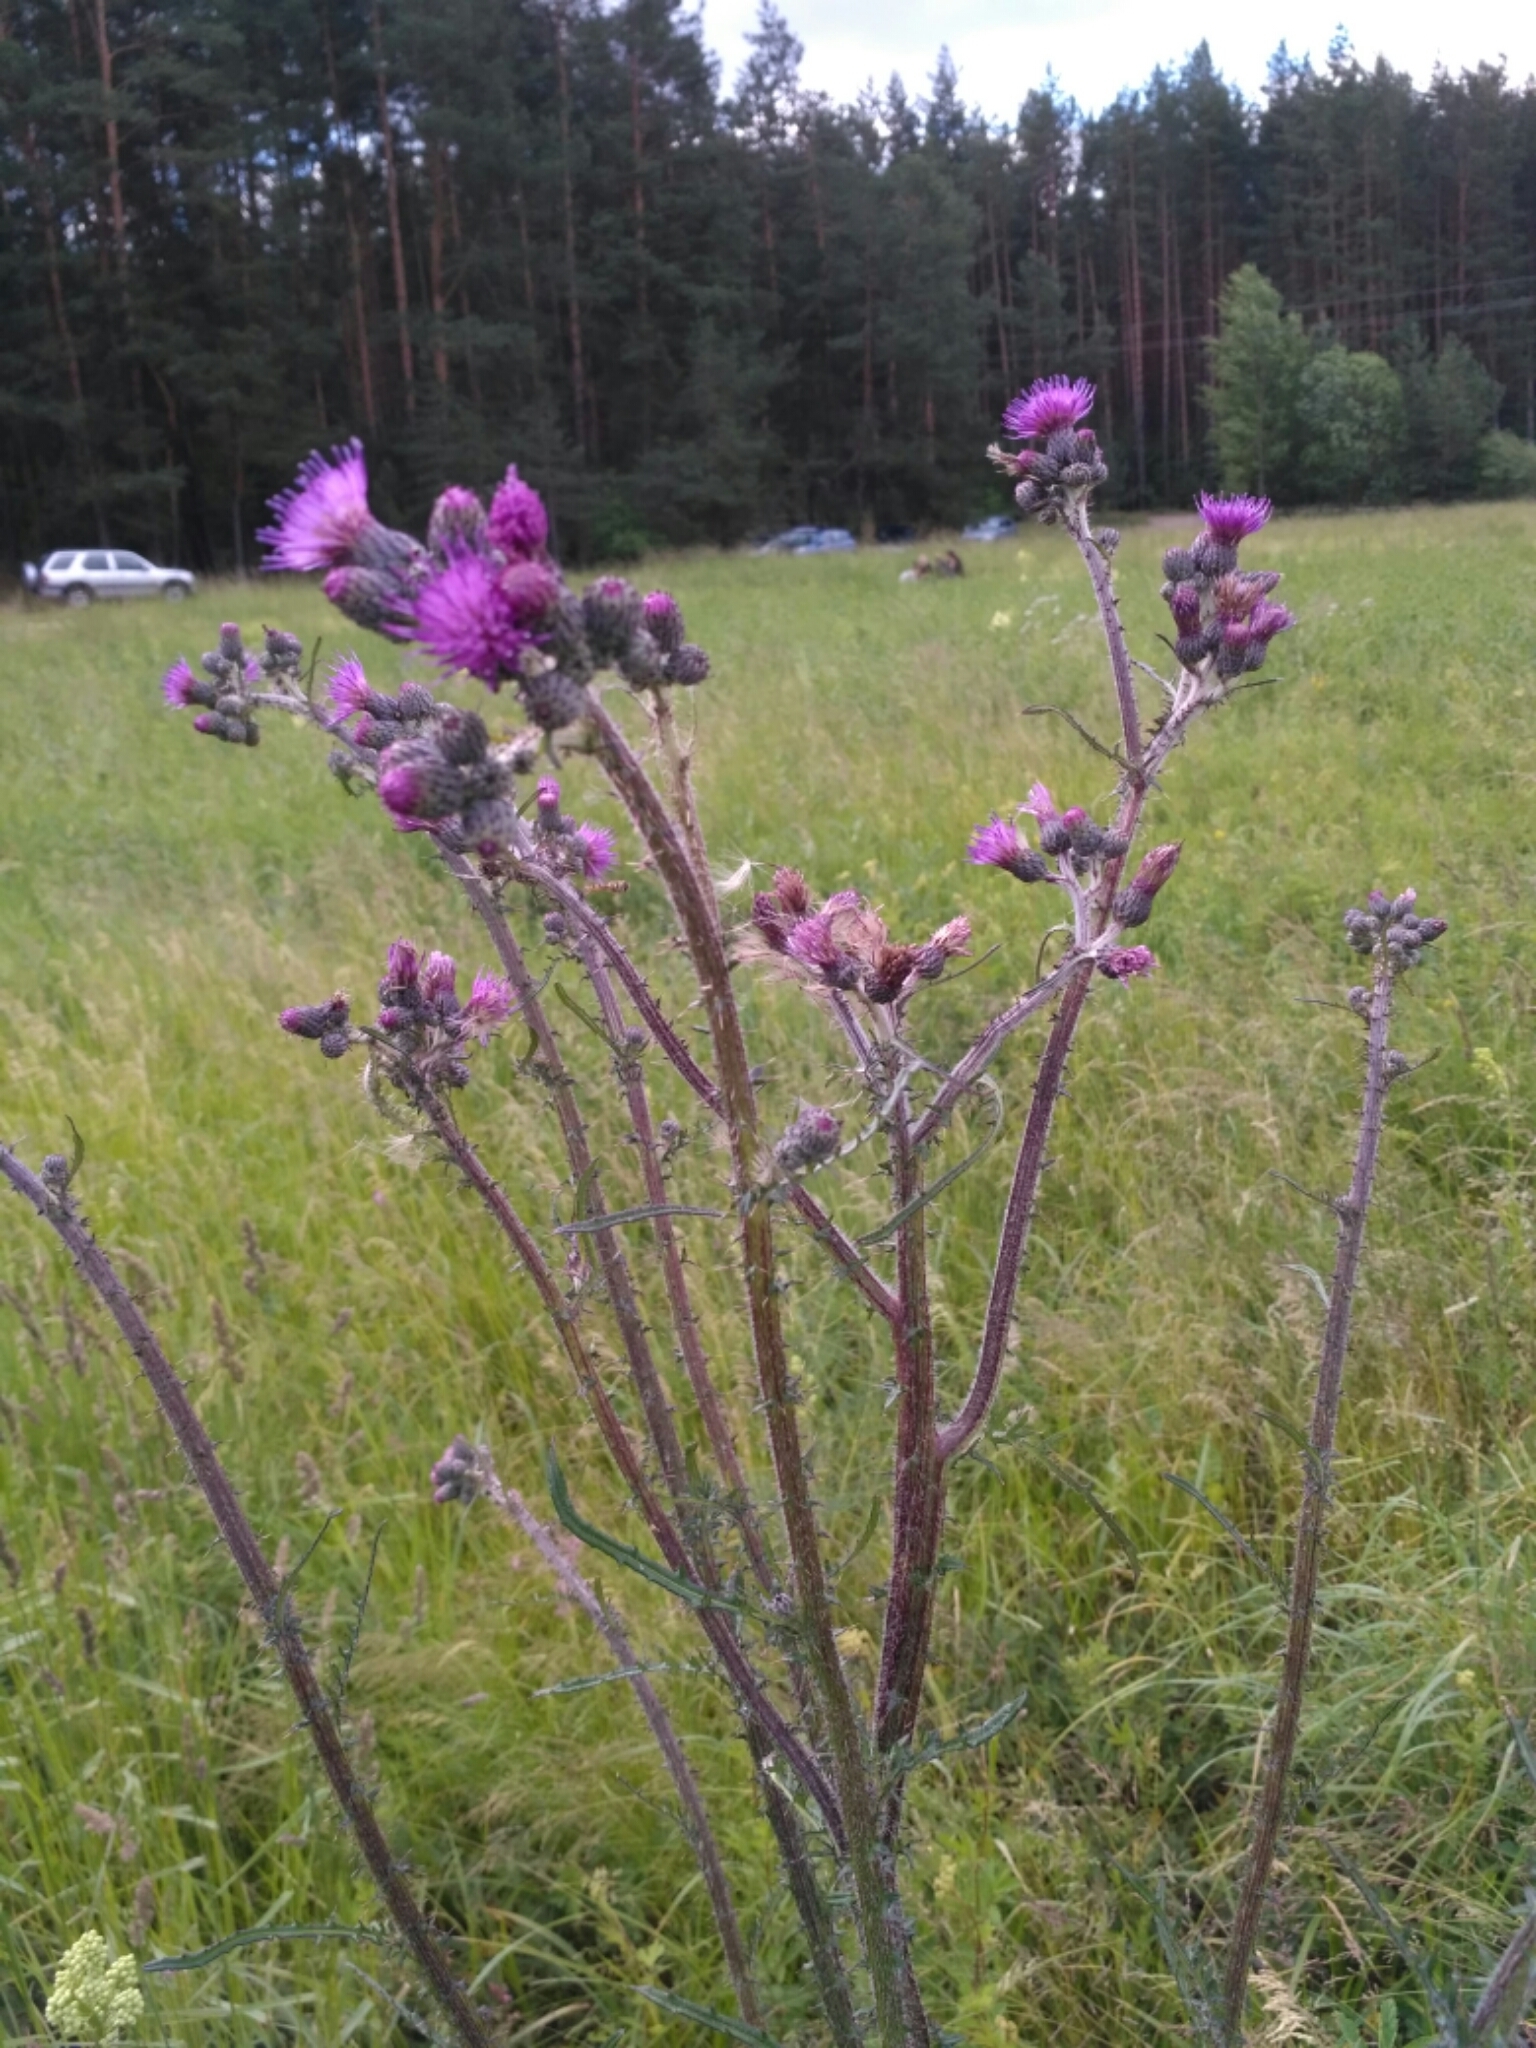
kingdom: Plantae
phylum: Tracheophyta
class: Magnoliopsida
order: Asterales
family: Asteraceae
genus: Cirsium
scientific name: Cirsium palustre
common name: Marsh thistle
